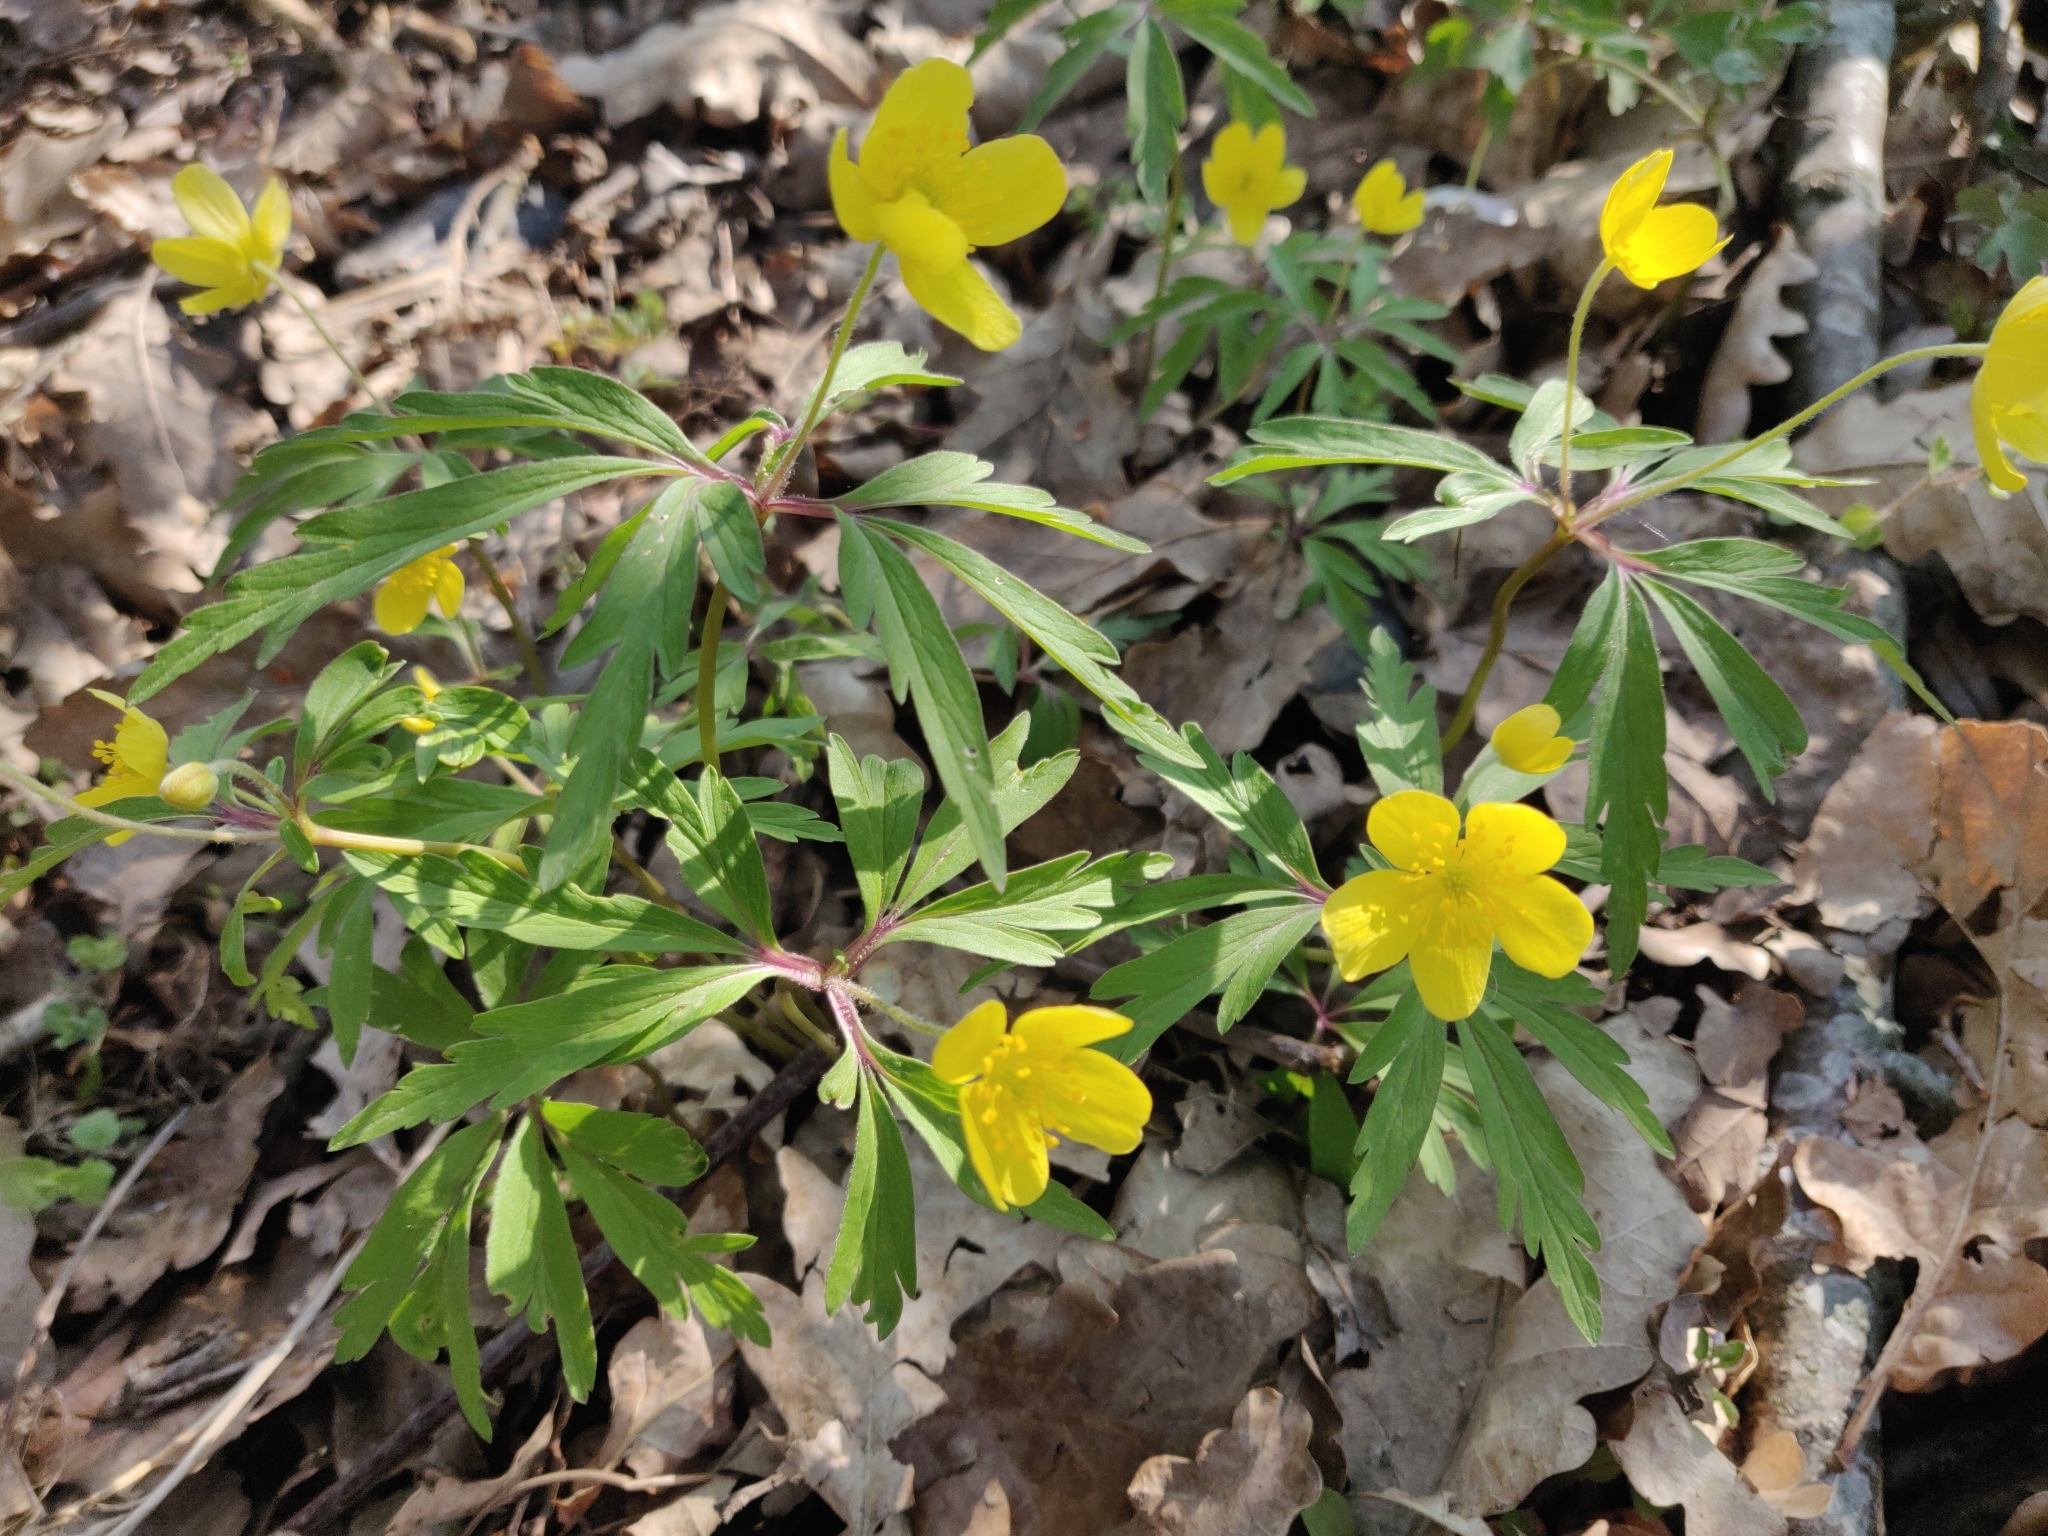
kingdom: Plantae
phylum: Tracheophyta
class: Magnoliopsida
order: Ranunculales
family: Ranunculaceae
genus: Anemone
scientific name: Anemone ranunculoides
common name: Yellow anemone
